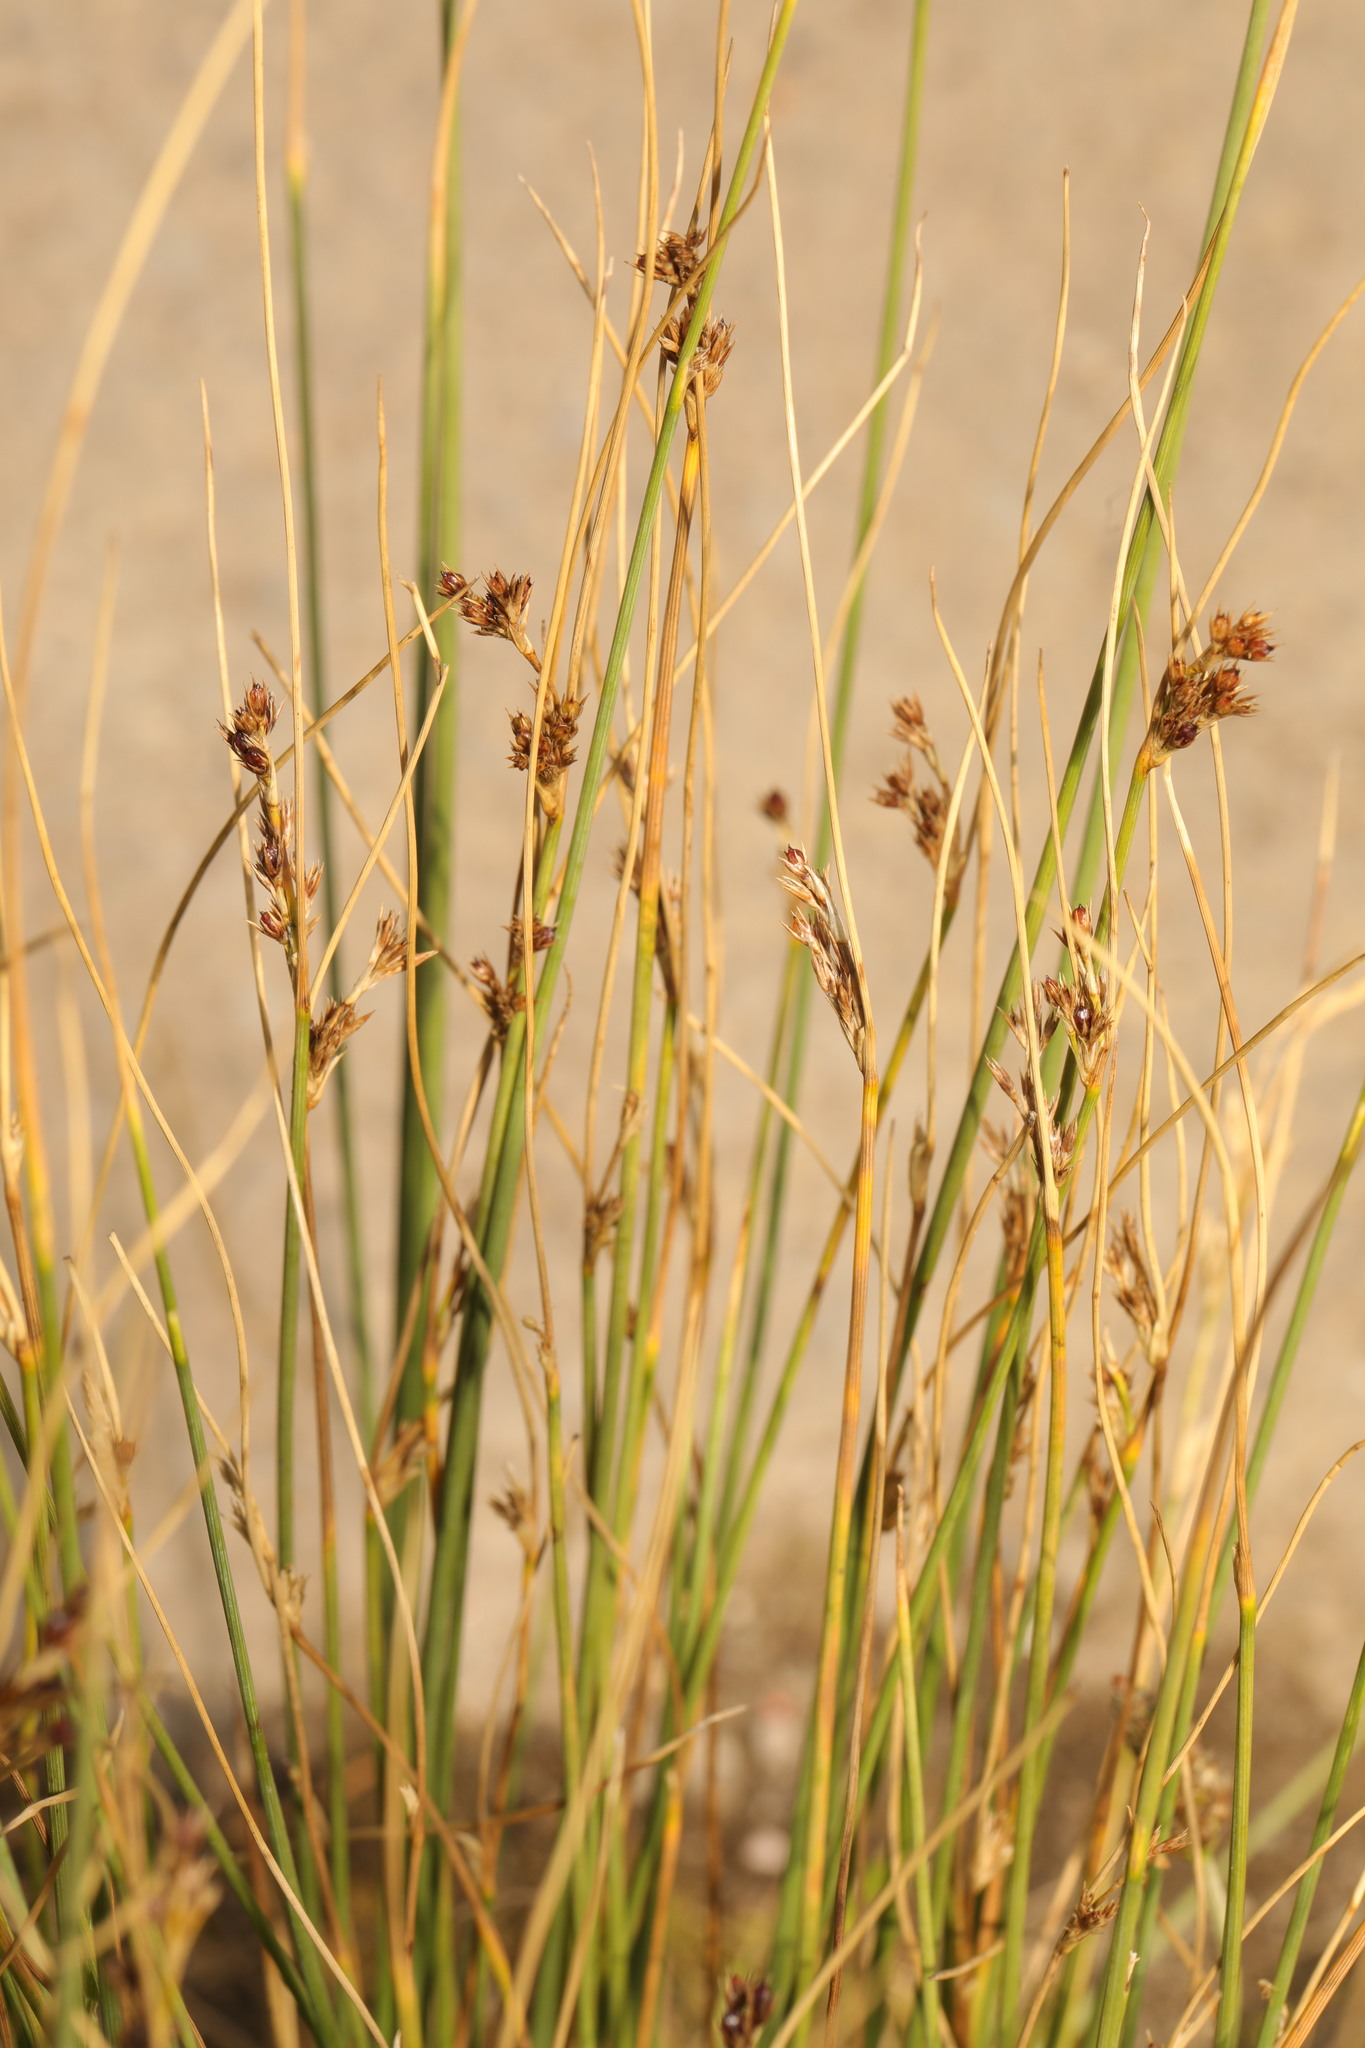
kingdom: Plantae
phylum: Tracheophyta
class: Liliopsida
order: Poales
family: Juncaceae
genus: Juncus
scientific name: Juncus inflexus
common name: Hard rush
